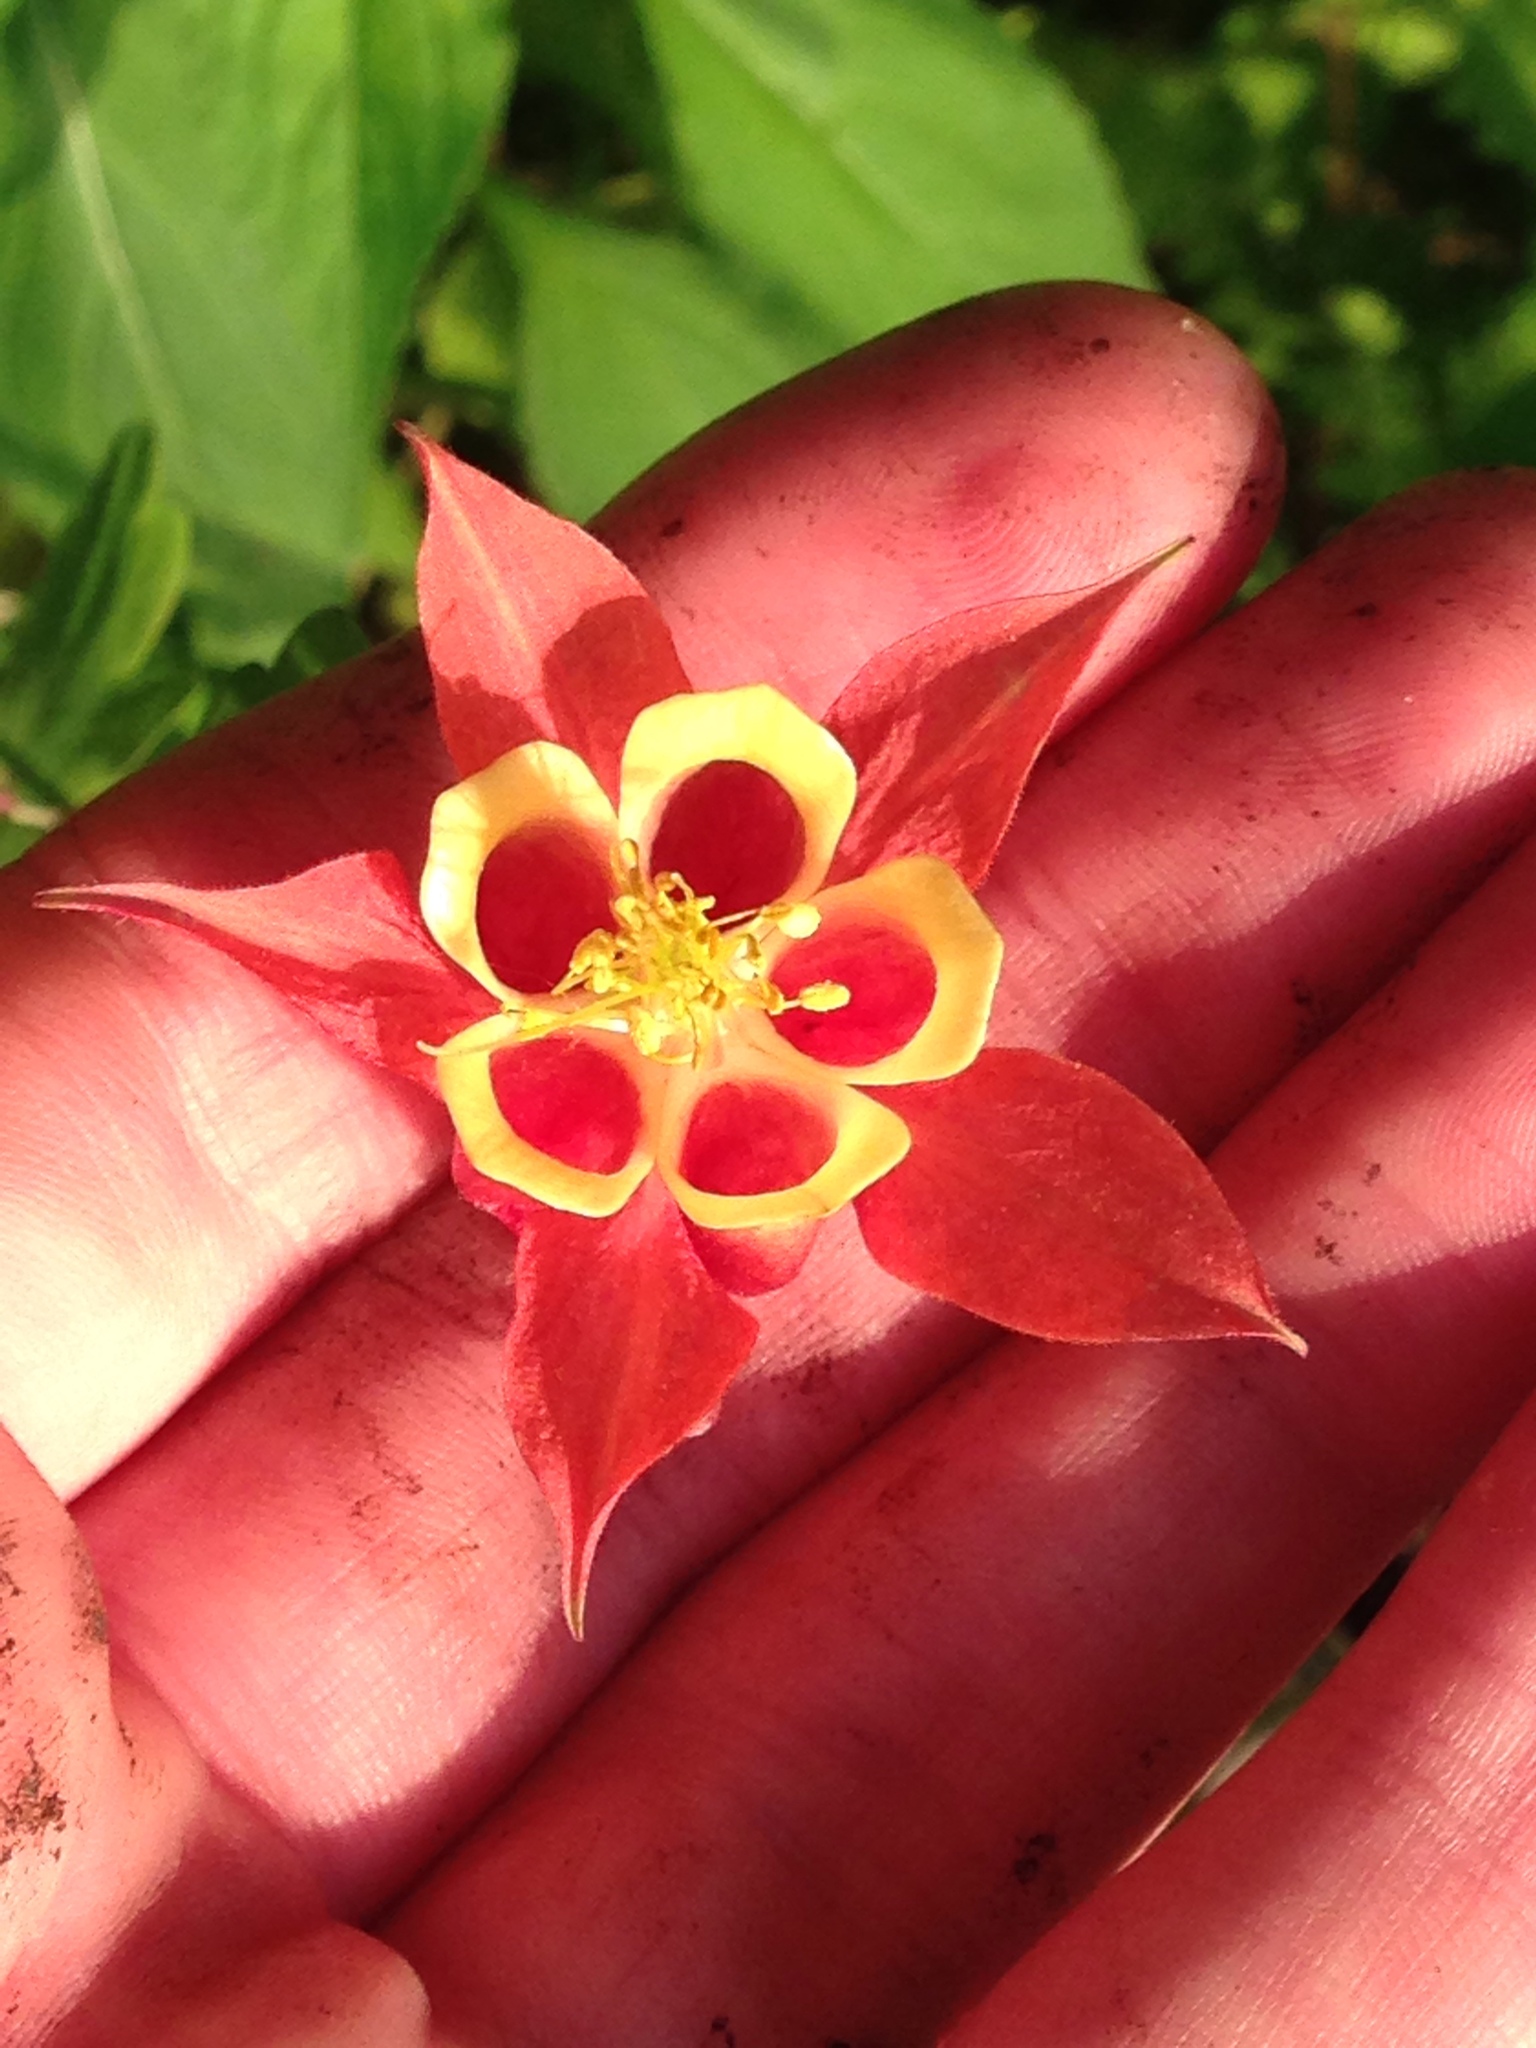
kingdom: Plantae
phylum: Tracheophyta
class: Magnoliopsida
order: Ranunculales
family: Ranunculaceae
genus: Aquilegia
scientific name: Aquilegia canadensis
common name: American columbine
